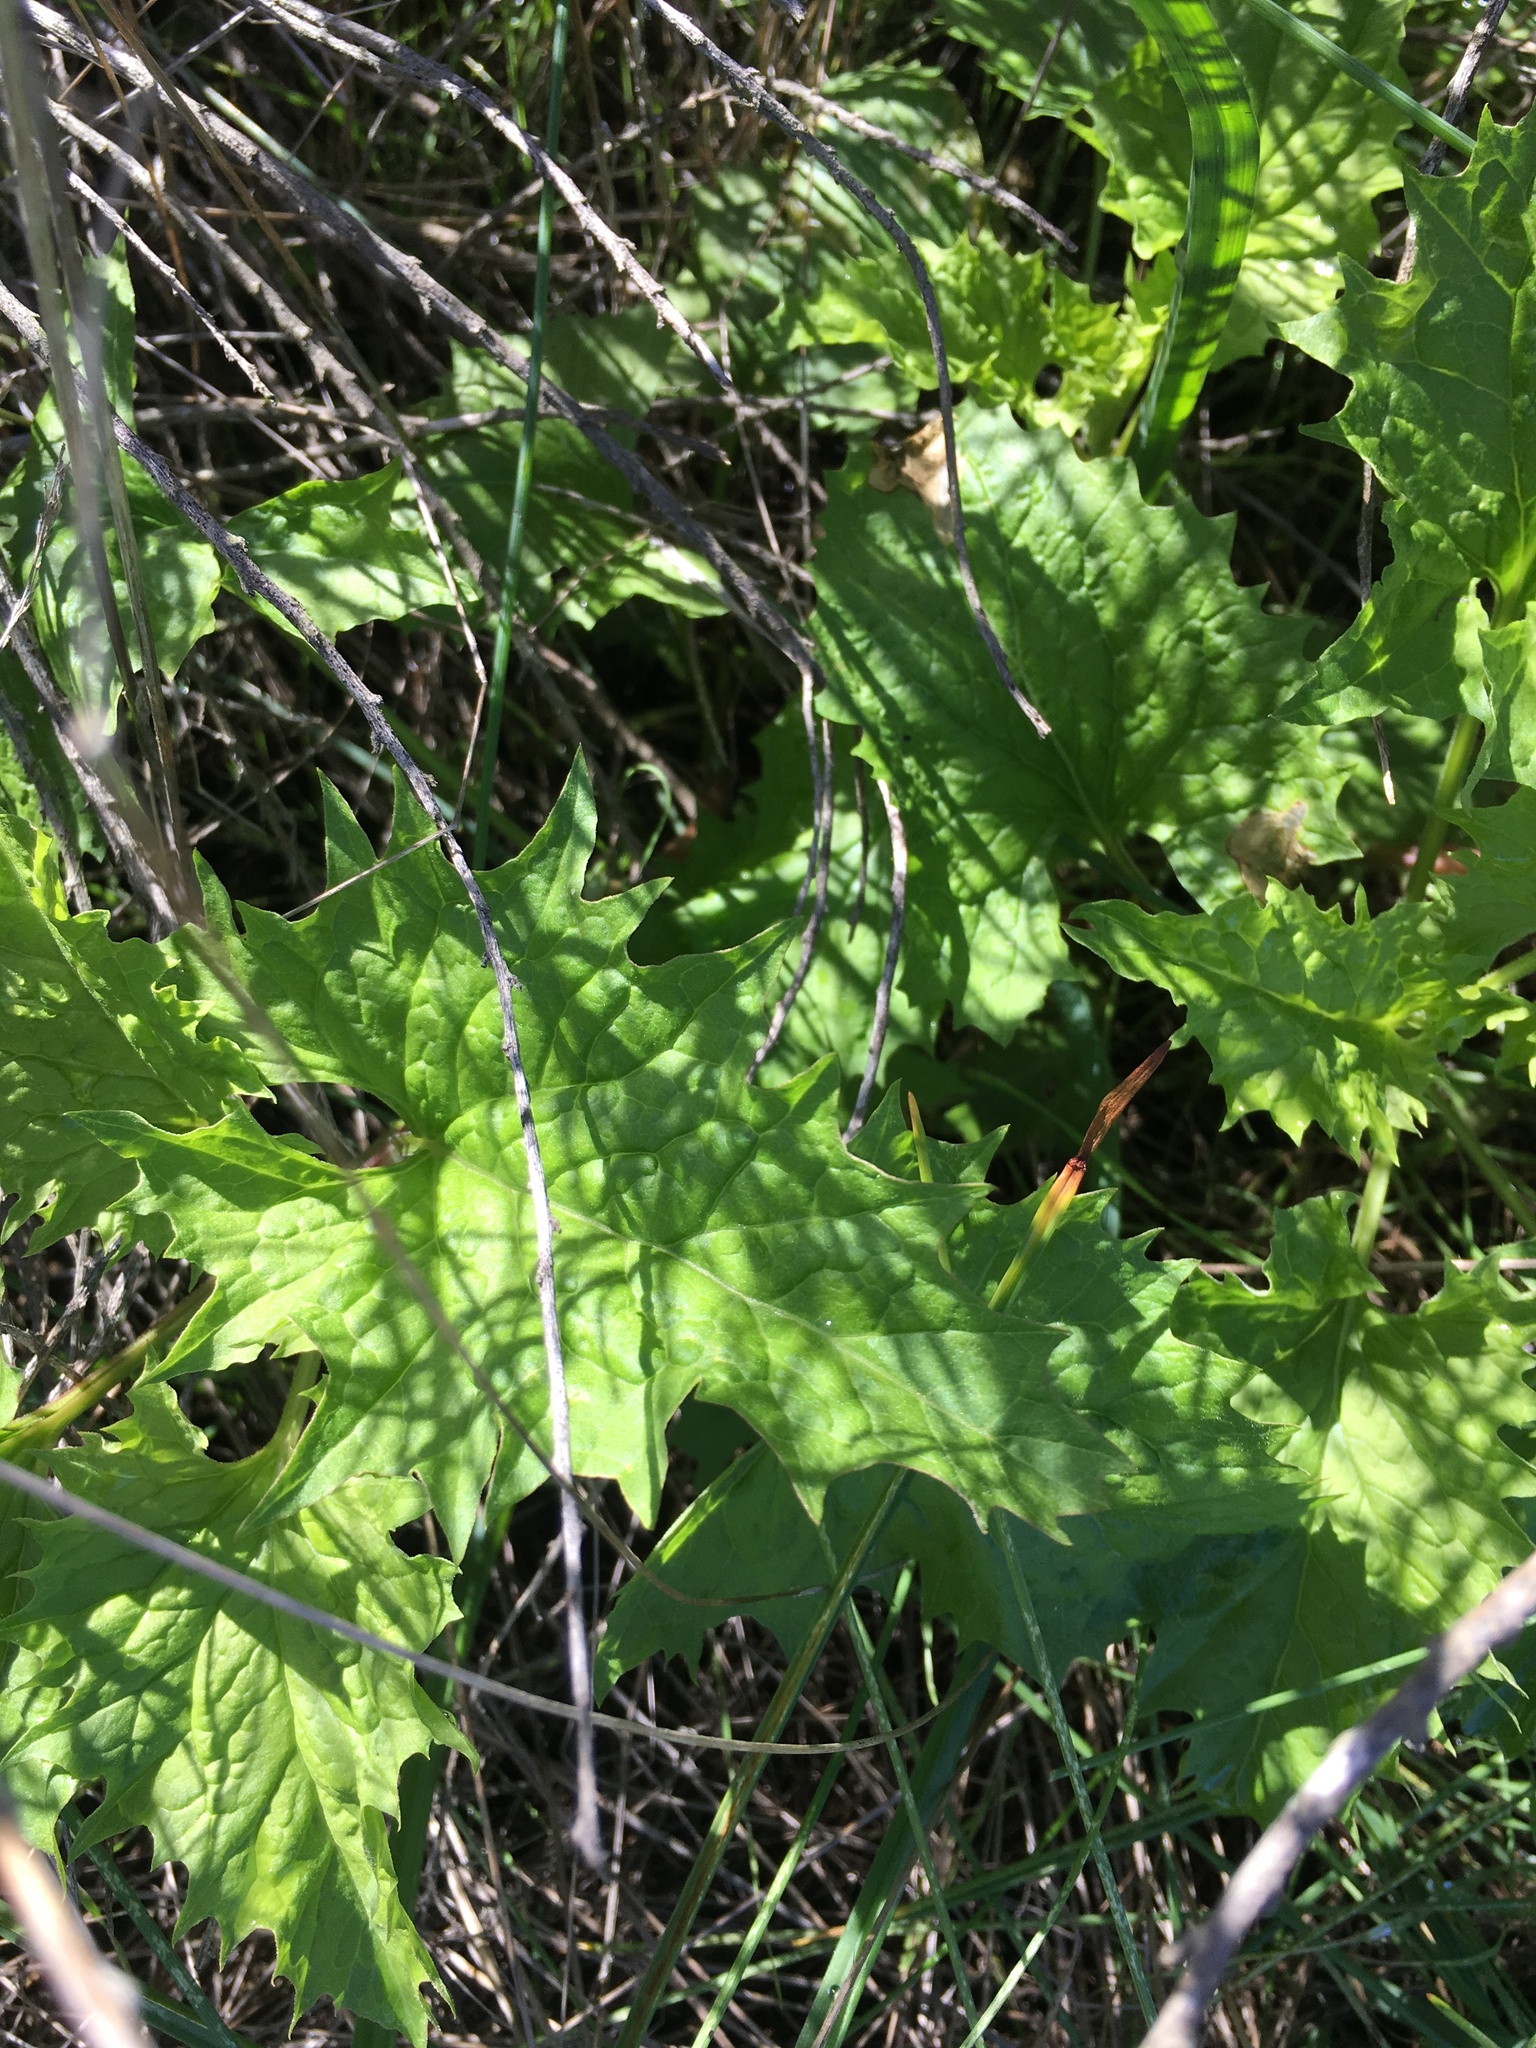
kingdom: Plantae
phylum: Tracheophyta
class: Magnoliopsida
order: Caryophyllales
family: Amaranthaceae
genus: Blitum
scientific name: Blitum californicum
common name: California goosefoot
